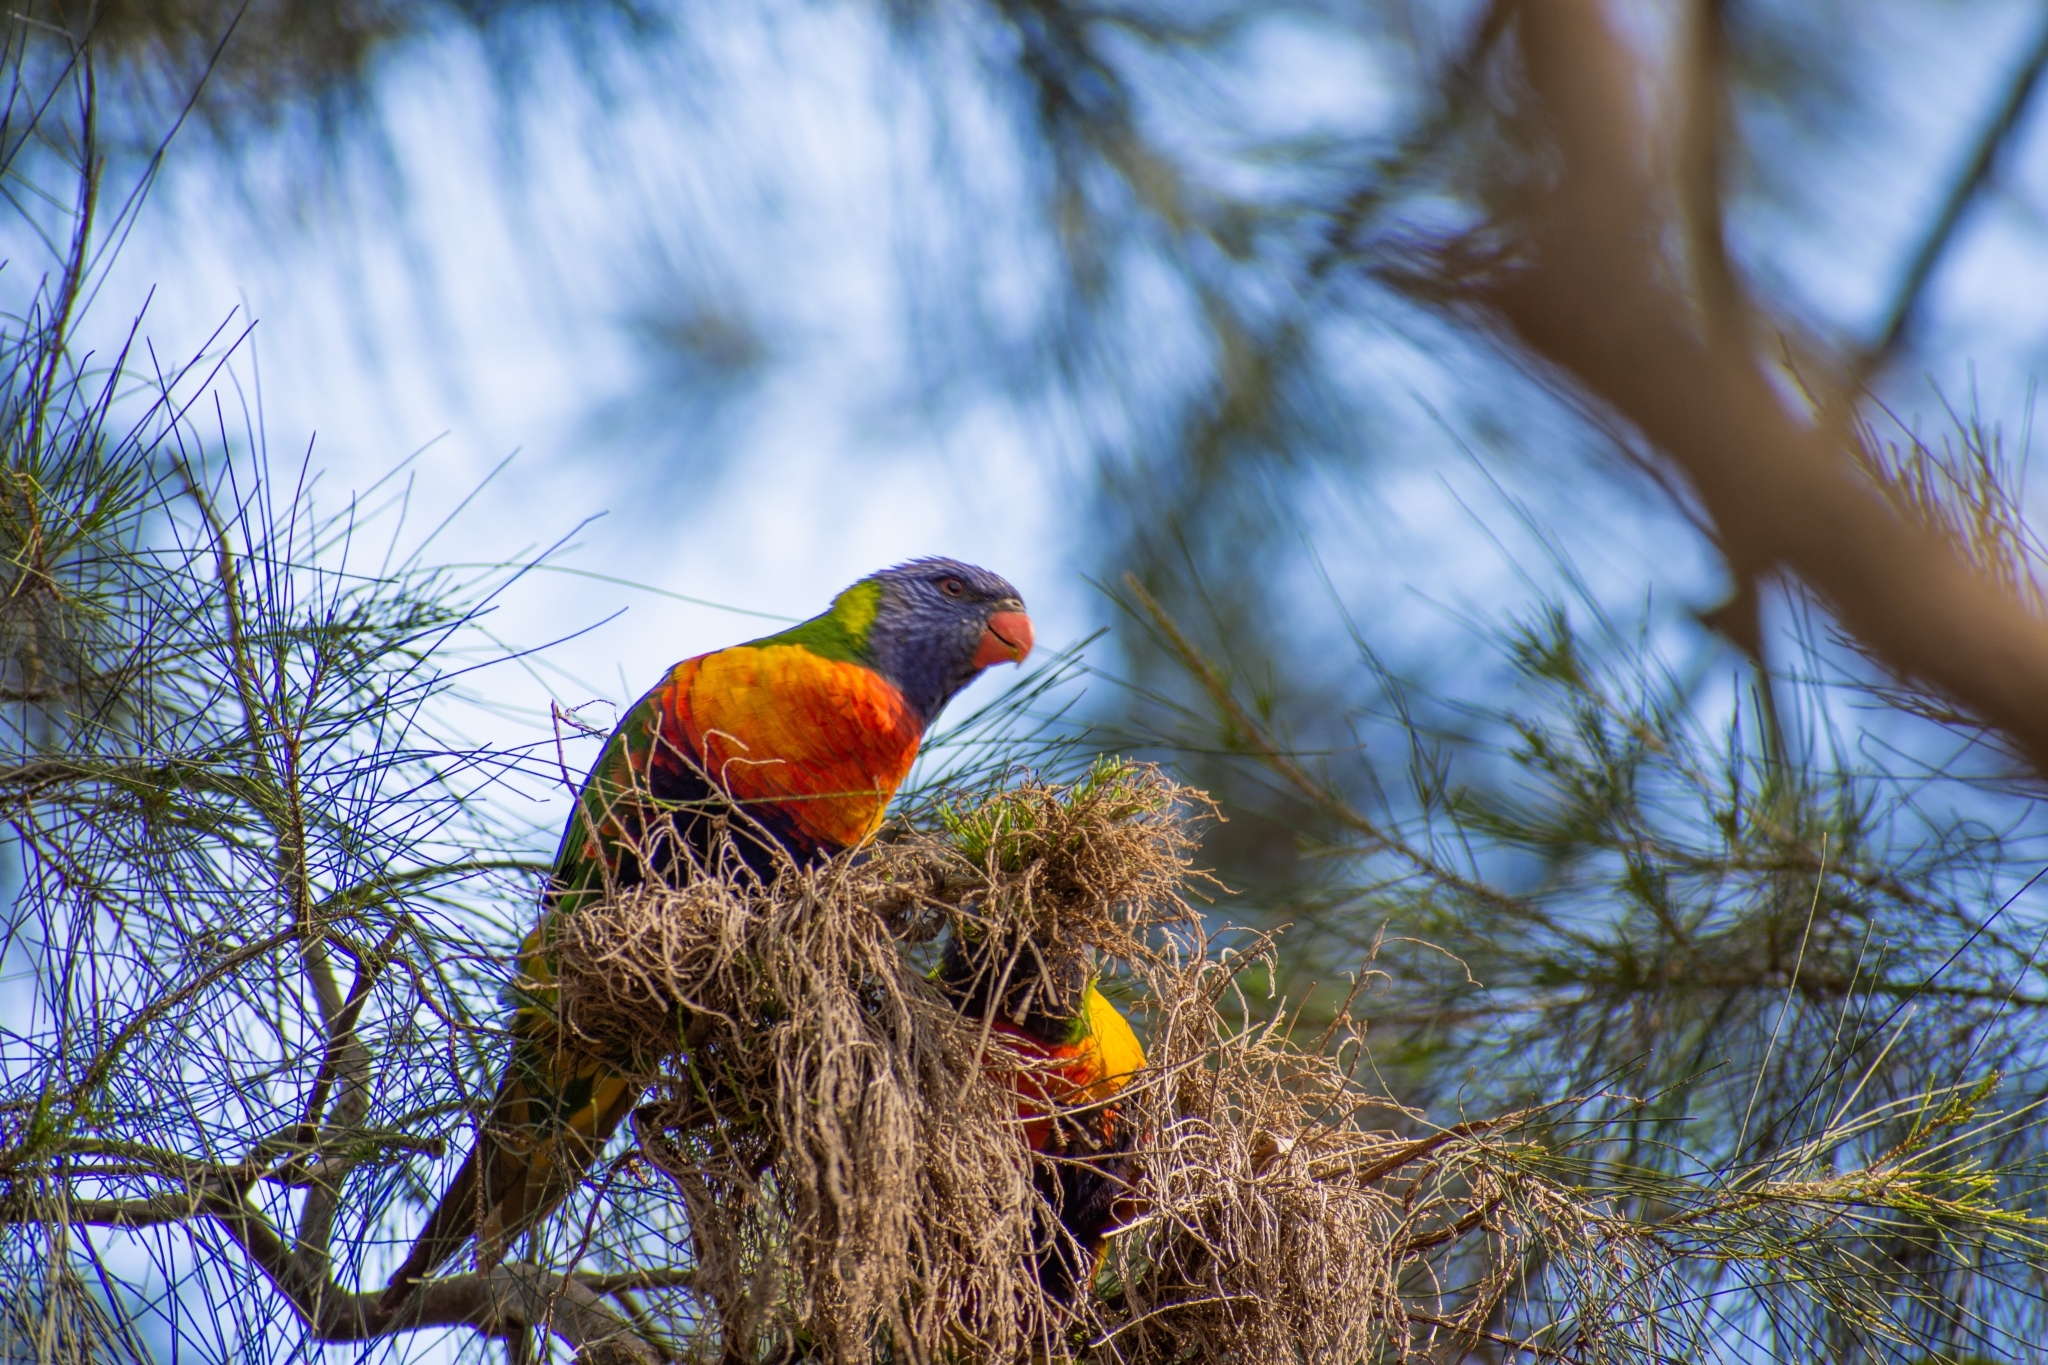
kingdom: Animalia
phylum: Chordata
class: Aves
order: Psittaciformes
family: Psittacidae
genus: Trichoglossus
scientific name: Trichoglossus haematodus
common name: Coconut lorikeet
